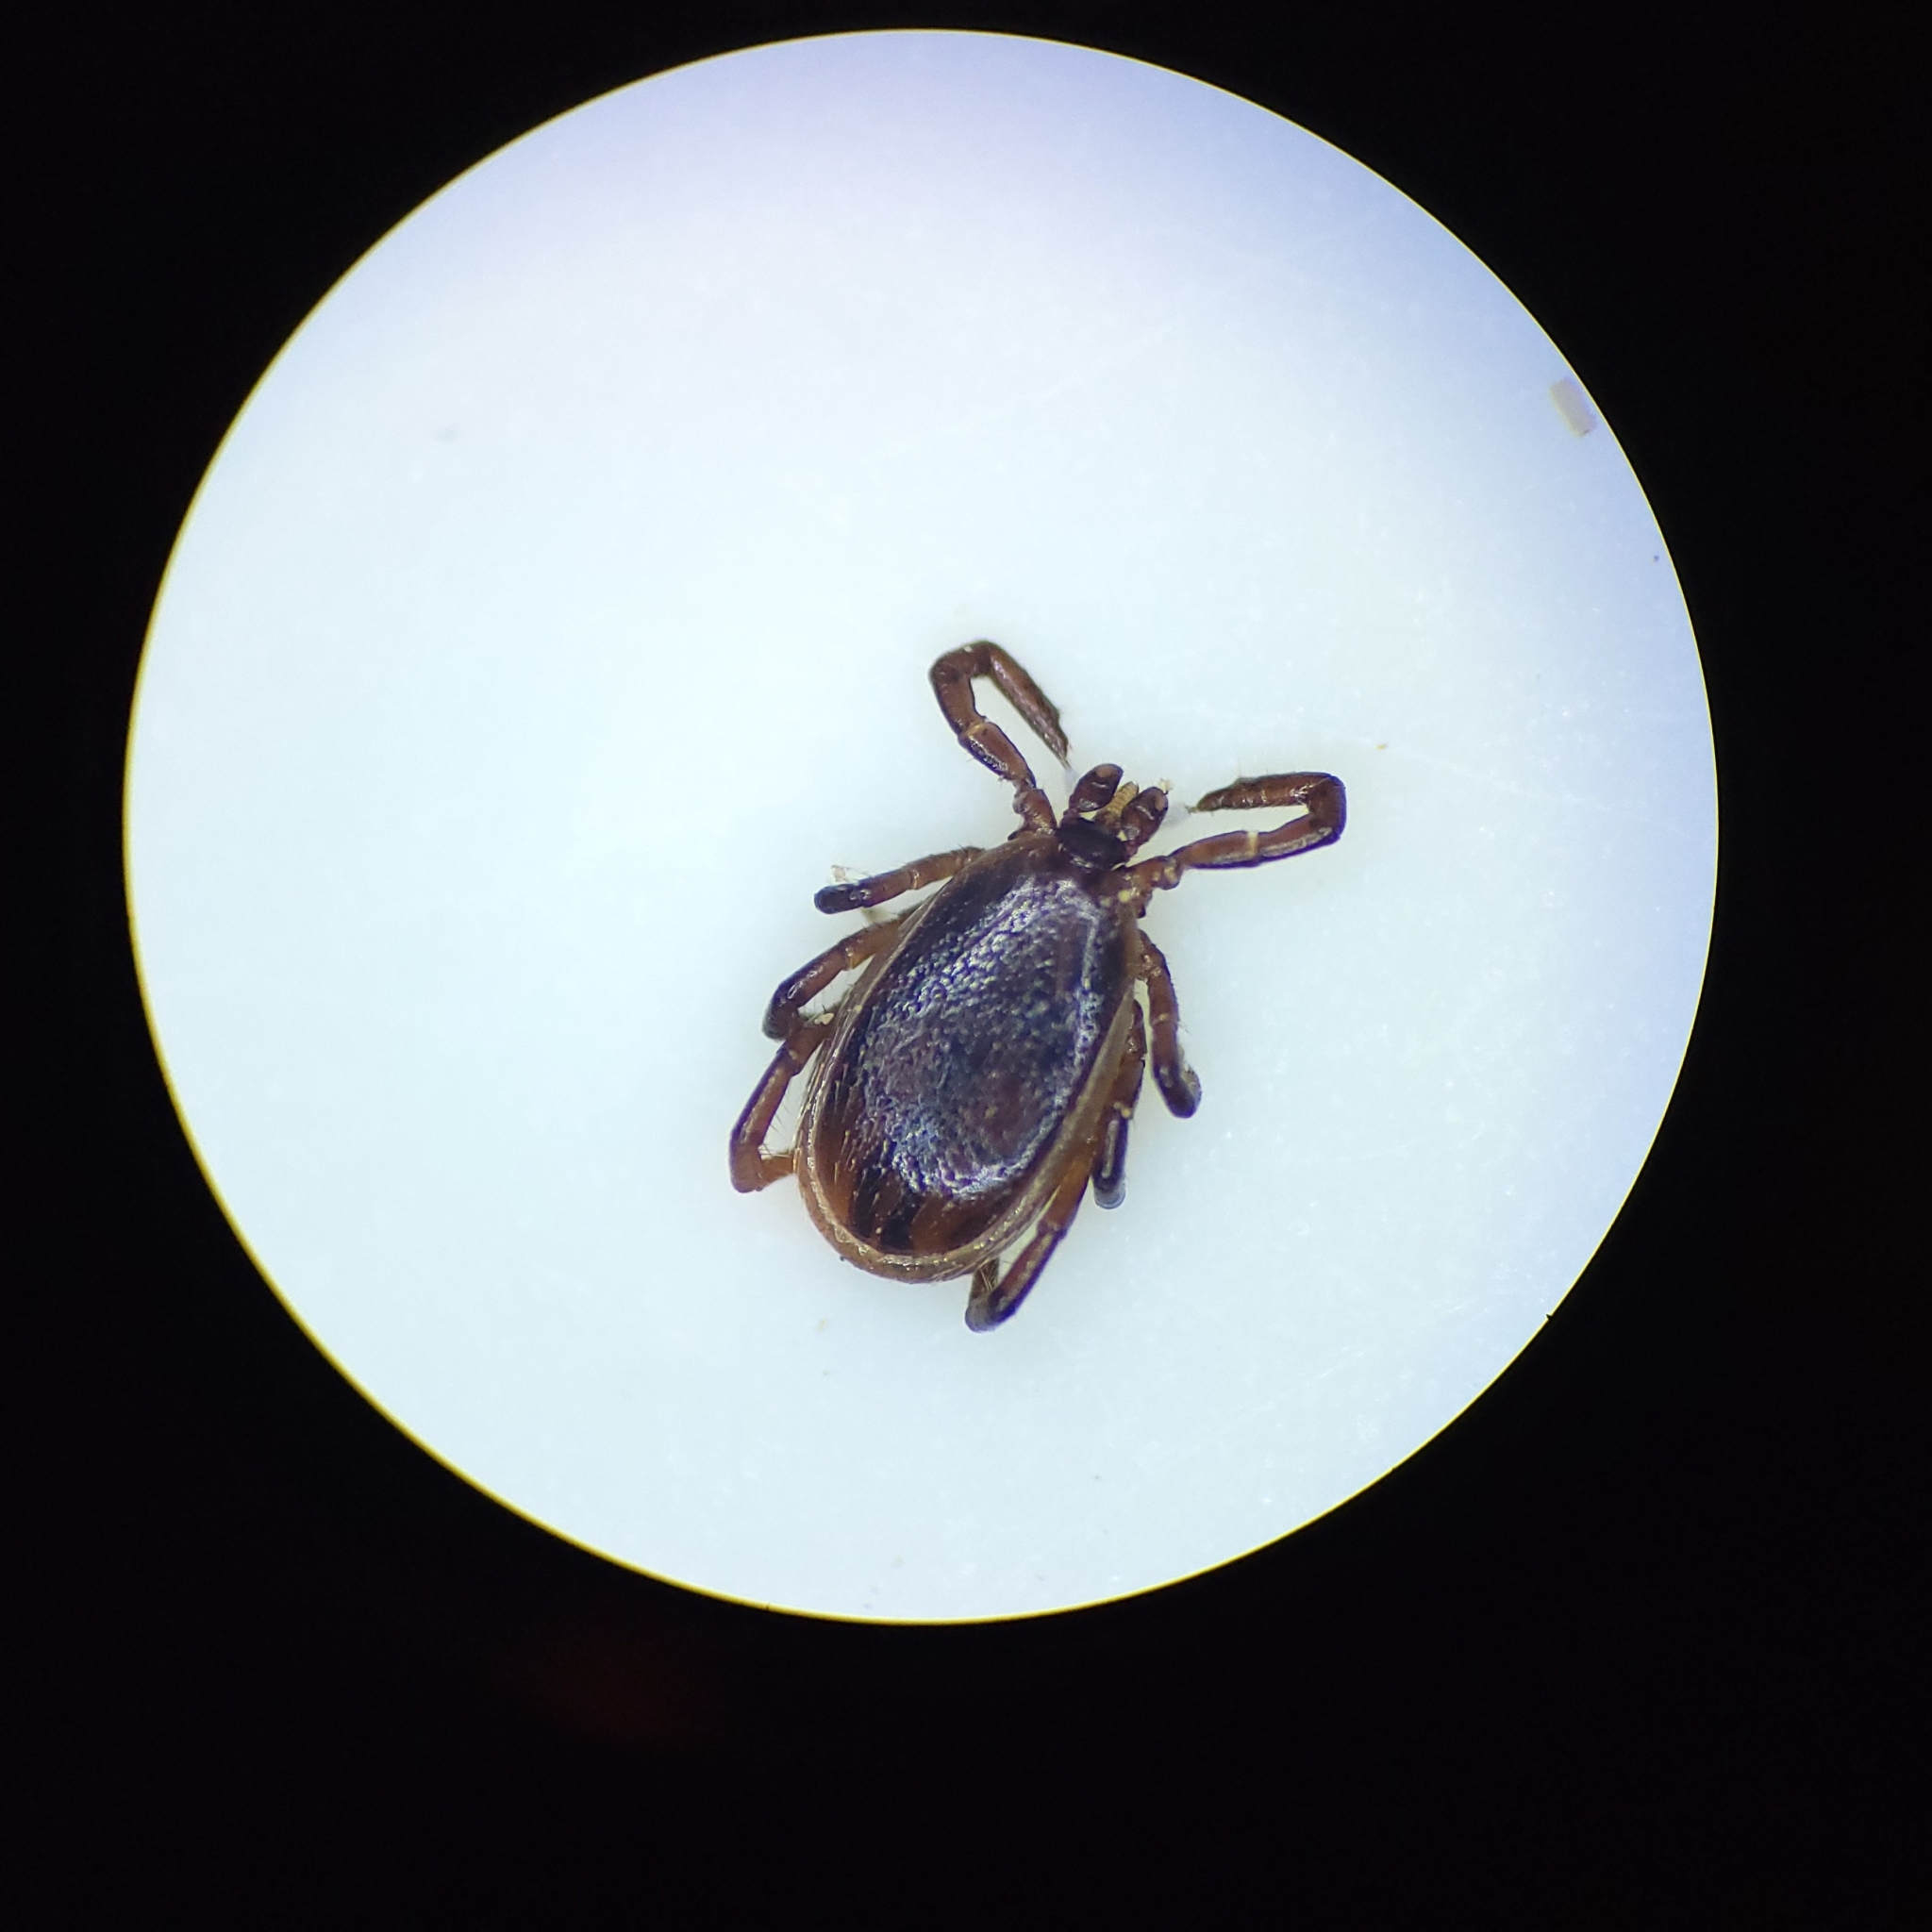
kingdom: Animalia
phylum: Arthropoda
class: Arachnida
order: Ixodida
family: Ixodidae
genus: Ixodes
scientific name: Ixodes scapularis
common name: Black legged tick
